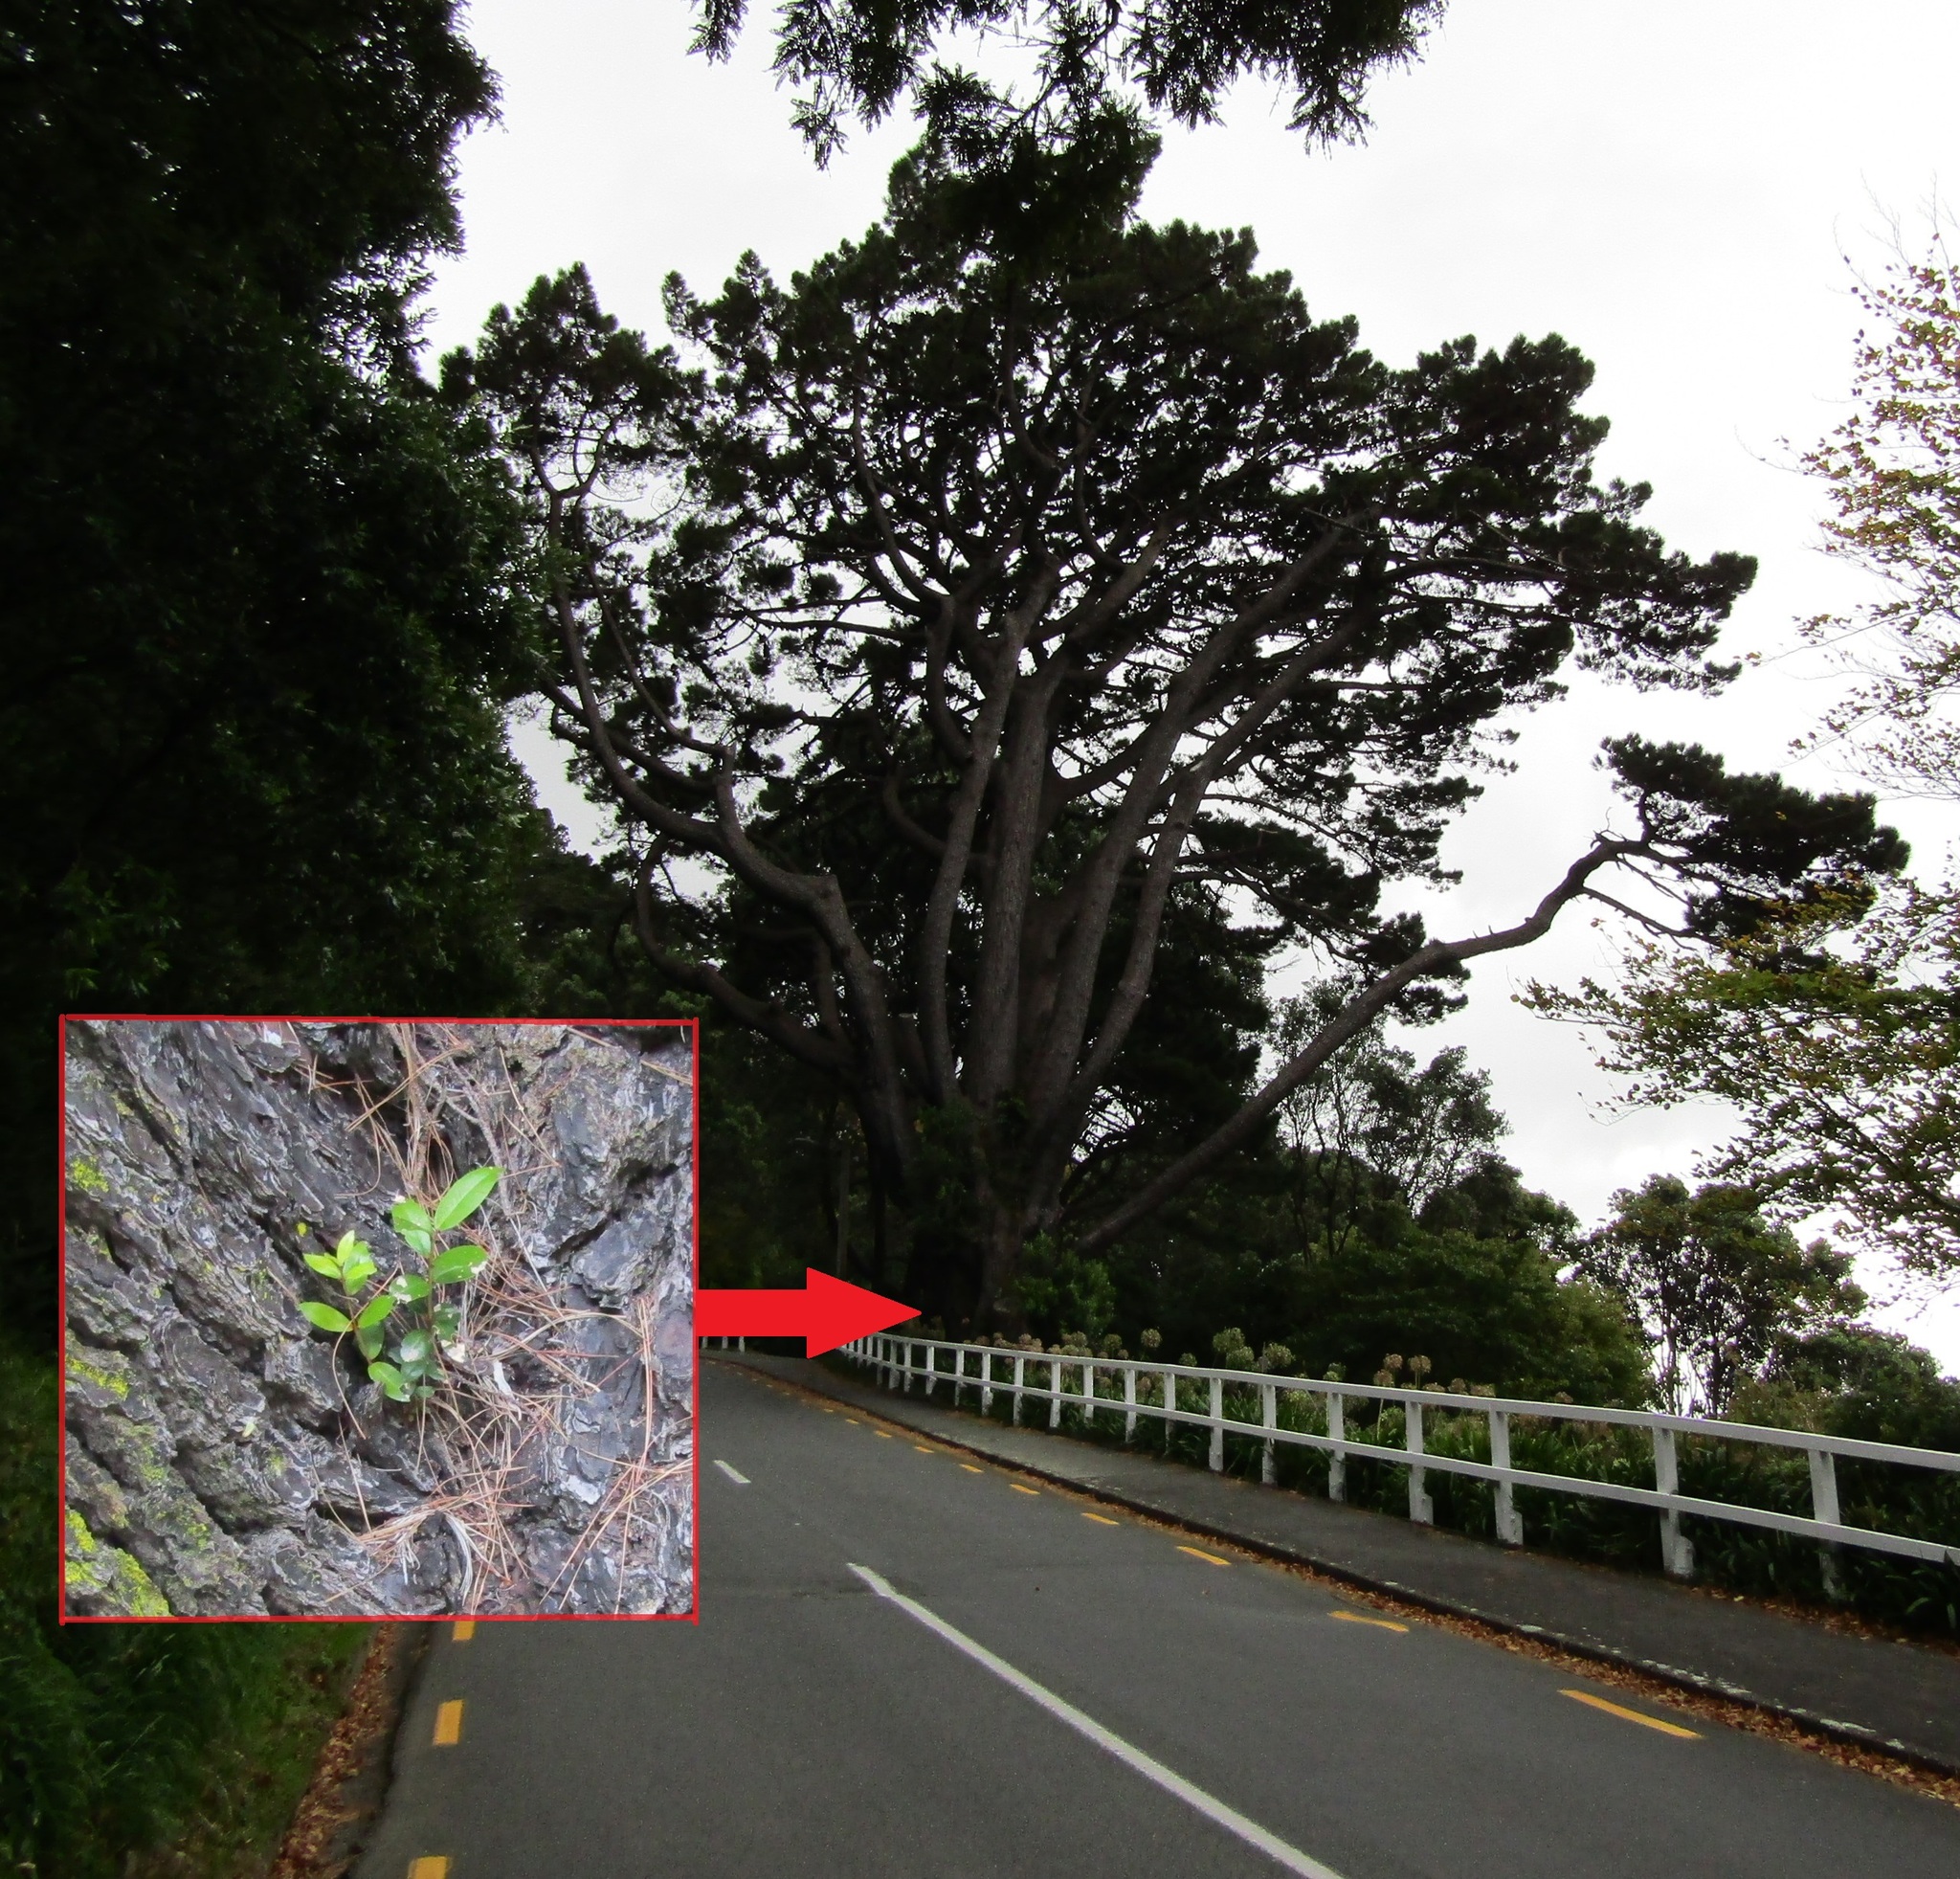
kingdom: Plantae
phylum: Tracheophyta
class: Magnoliopsida
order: Myrtales
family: Myrtaceae
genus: Metrosideros
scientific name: Metrosideros excelsa
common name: New zealand christmastree
